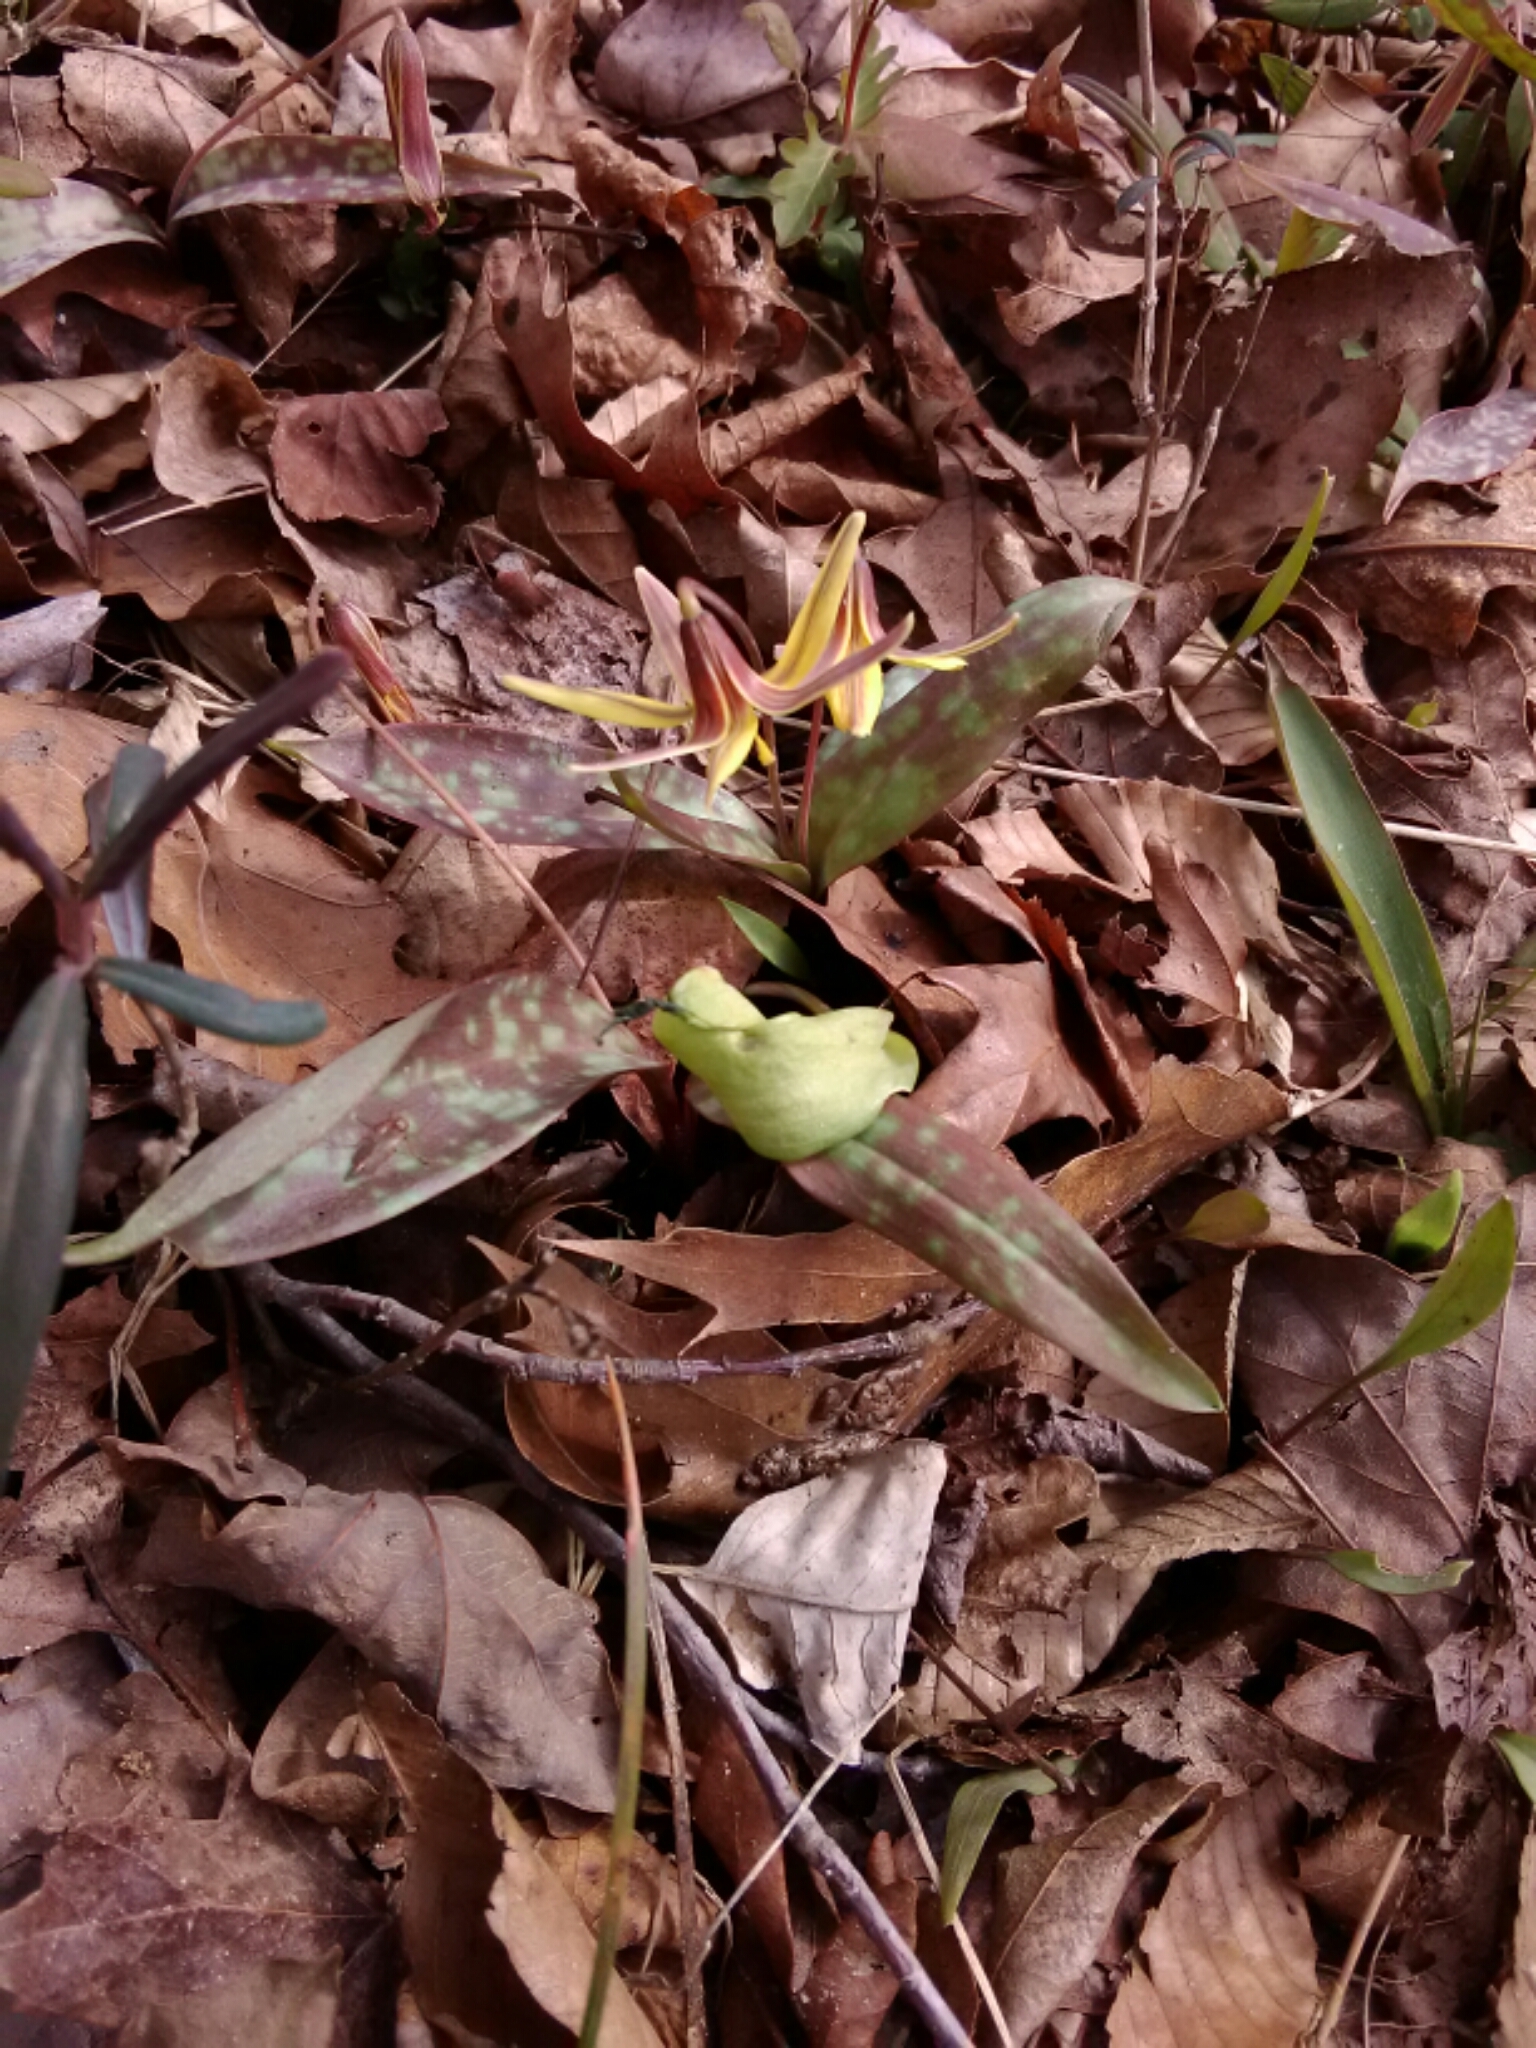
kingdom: Plantae
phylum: Tracheophyta
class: Liliopsida
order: Liliales
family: Liliaceae
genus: Erythronium
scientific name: Erythronium umbilicatum
